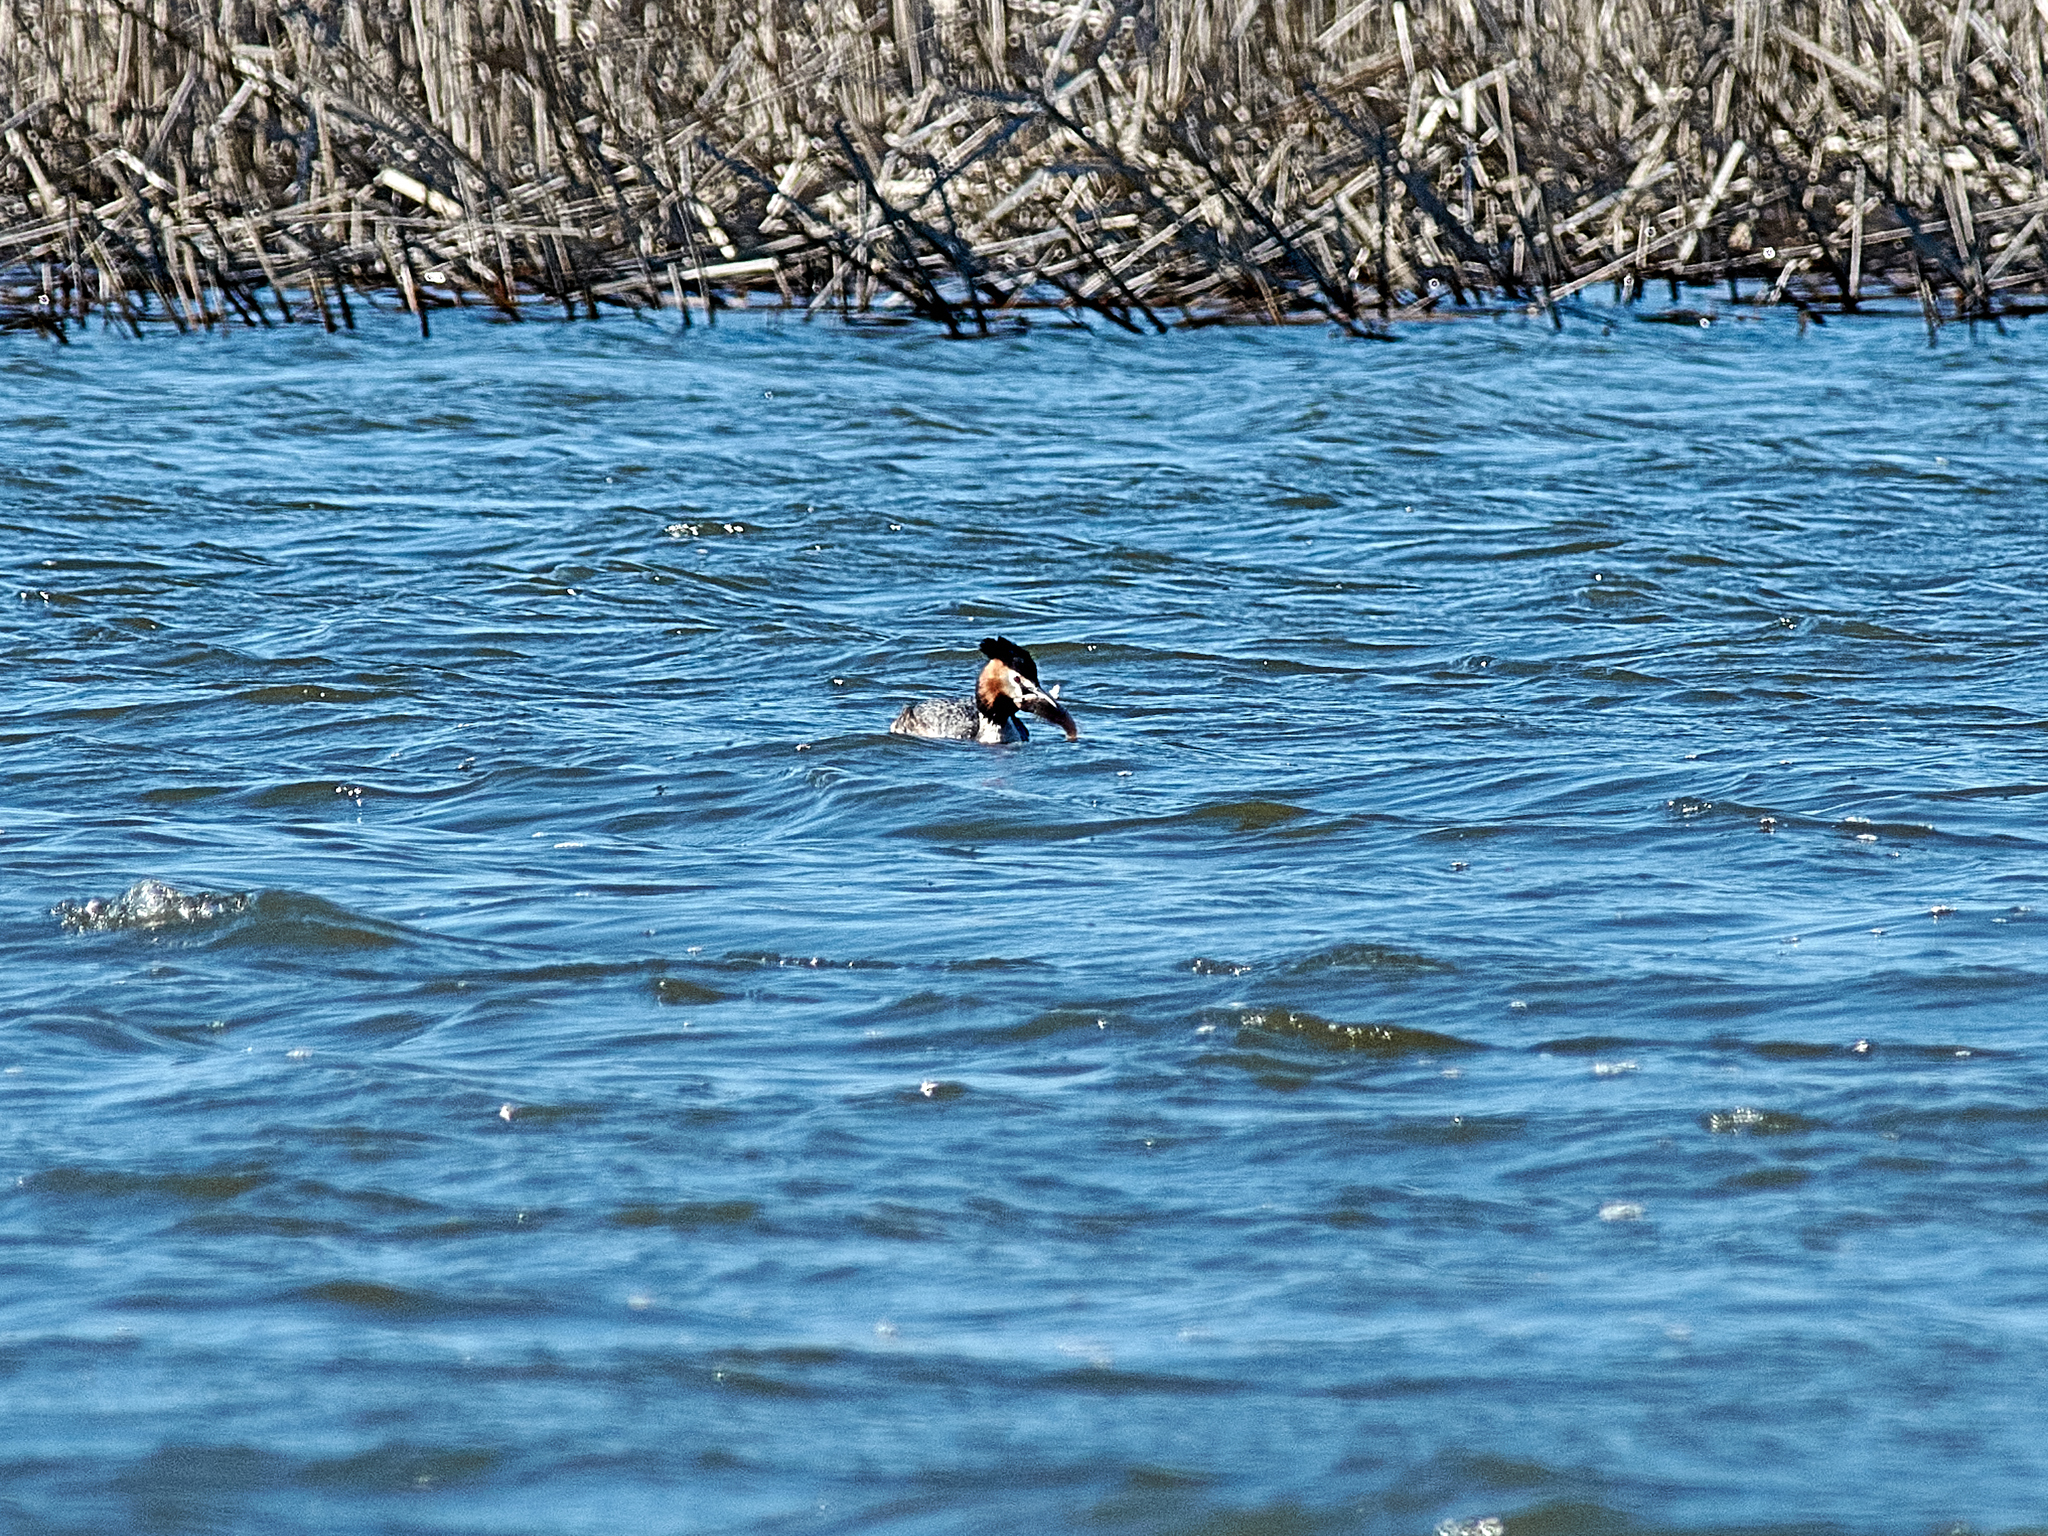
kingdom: Animalia
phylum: Chordata
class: Aves
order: Podicipediformes
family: Podicipedidae
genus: Podiceps
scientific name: Podiceps cristatus
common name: Great crested grebe
